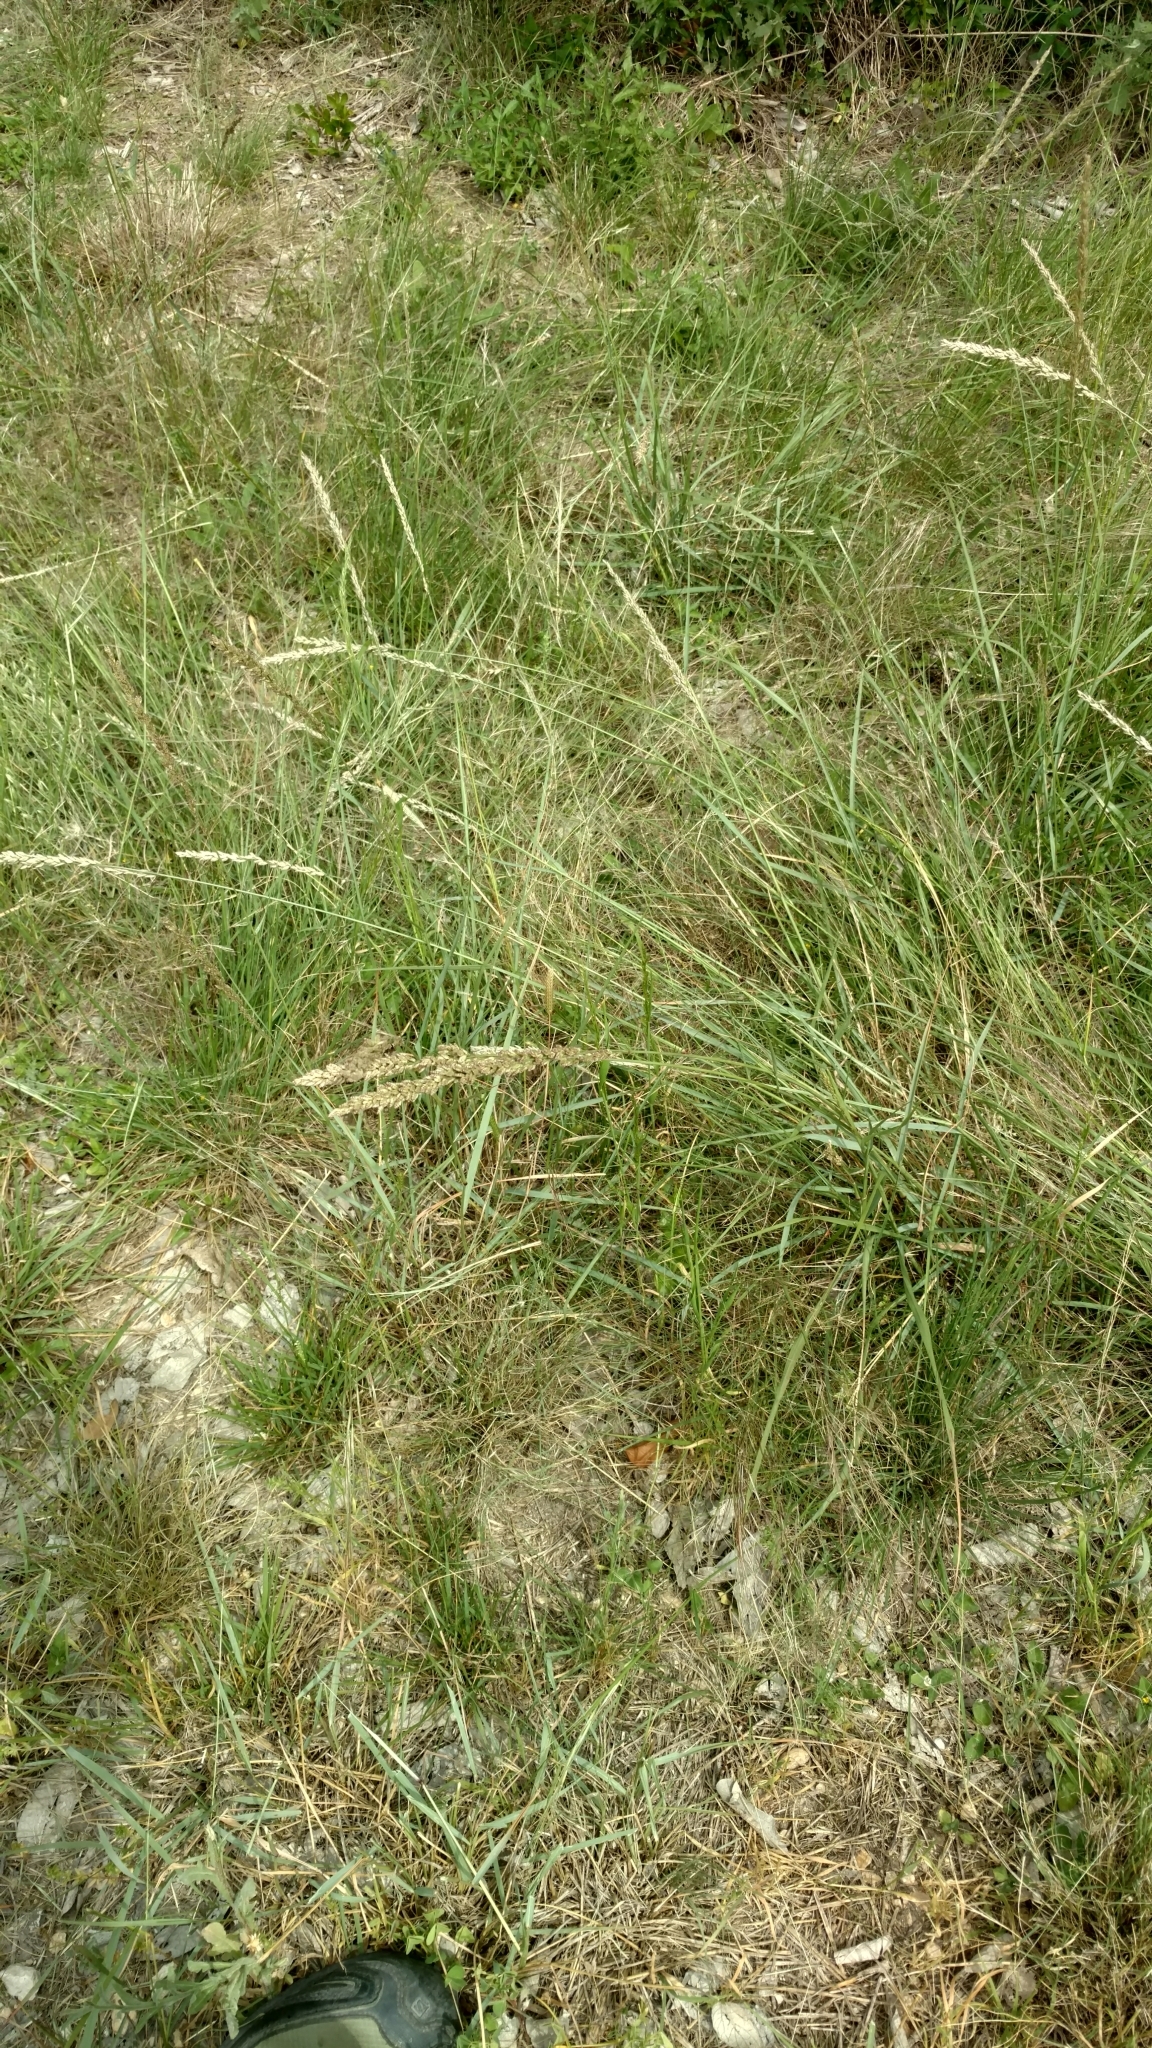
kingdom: Plantae
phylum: Tracheophyta
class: Liliopsida
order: Poales
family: Poaceae
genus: Tridens
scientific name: Tridens albescens
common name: White tridens
